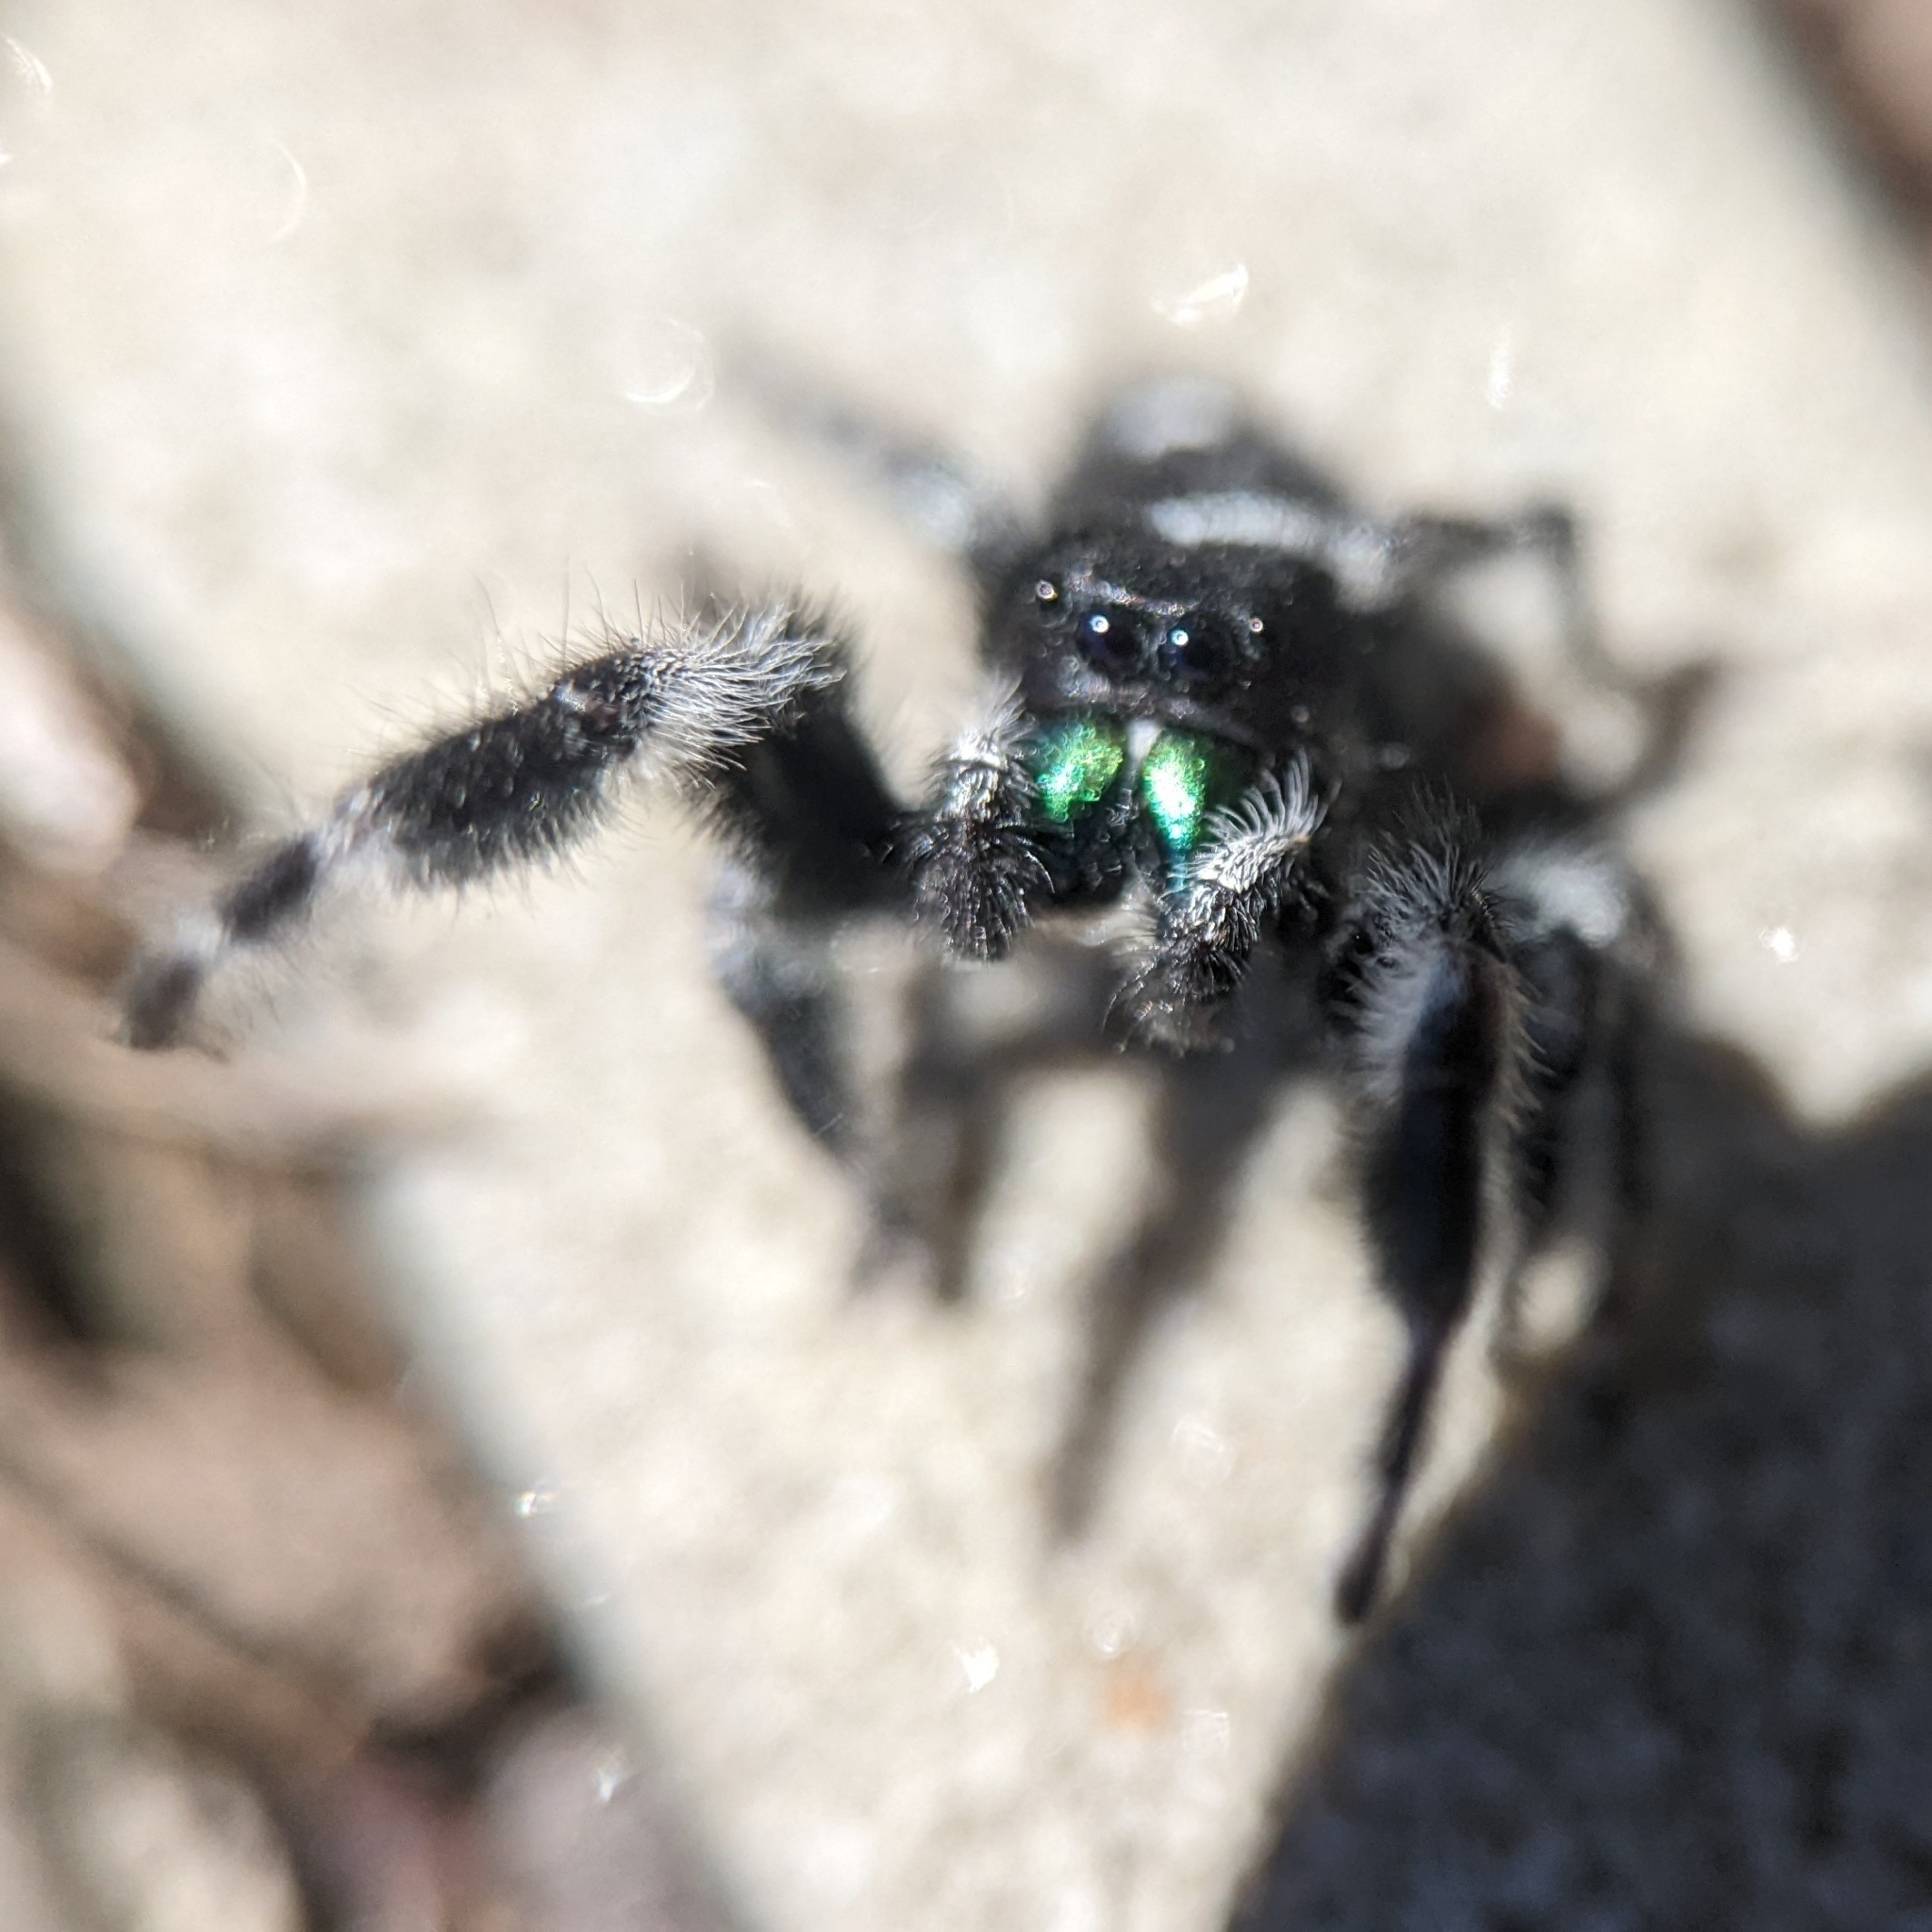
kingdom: Animalia
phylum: Arthropoda
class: Arachnida
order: Araneae
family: Salticidae
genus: Phidippus
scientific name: Phidippus audax
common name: Bold jumper
